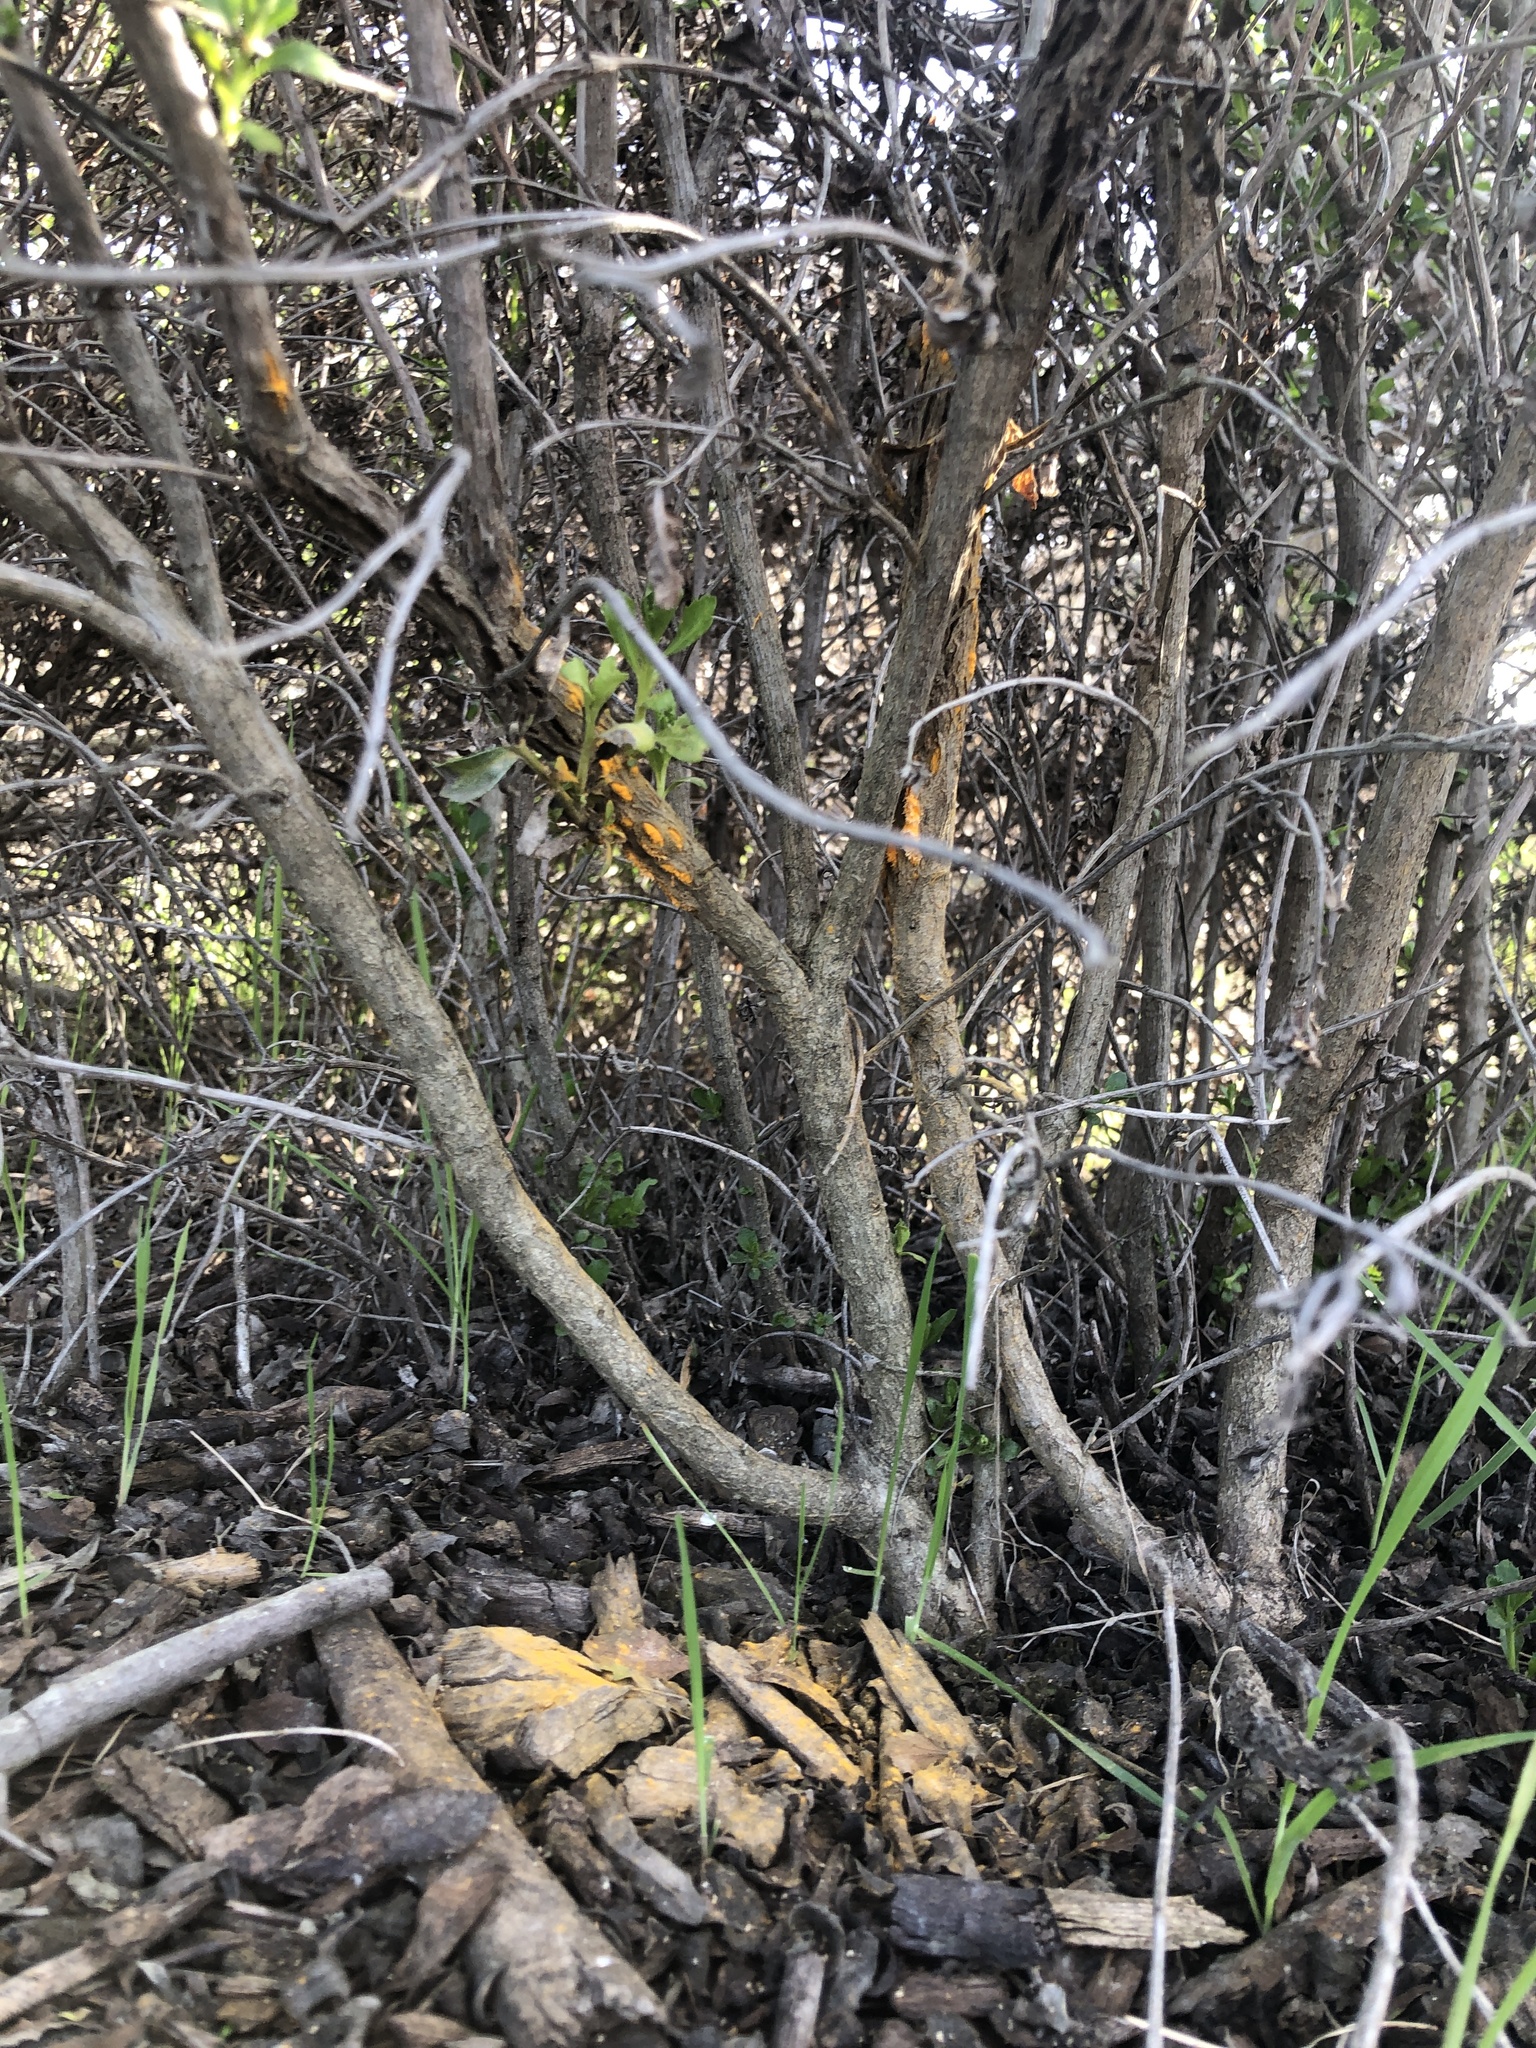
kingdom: Fungi
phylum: Basidiomycota
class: Pucciniomycetes
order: Pucciniales
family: Pucciniaceae
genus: Eriosporangium
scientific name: Eriosporangium evadens
